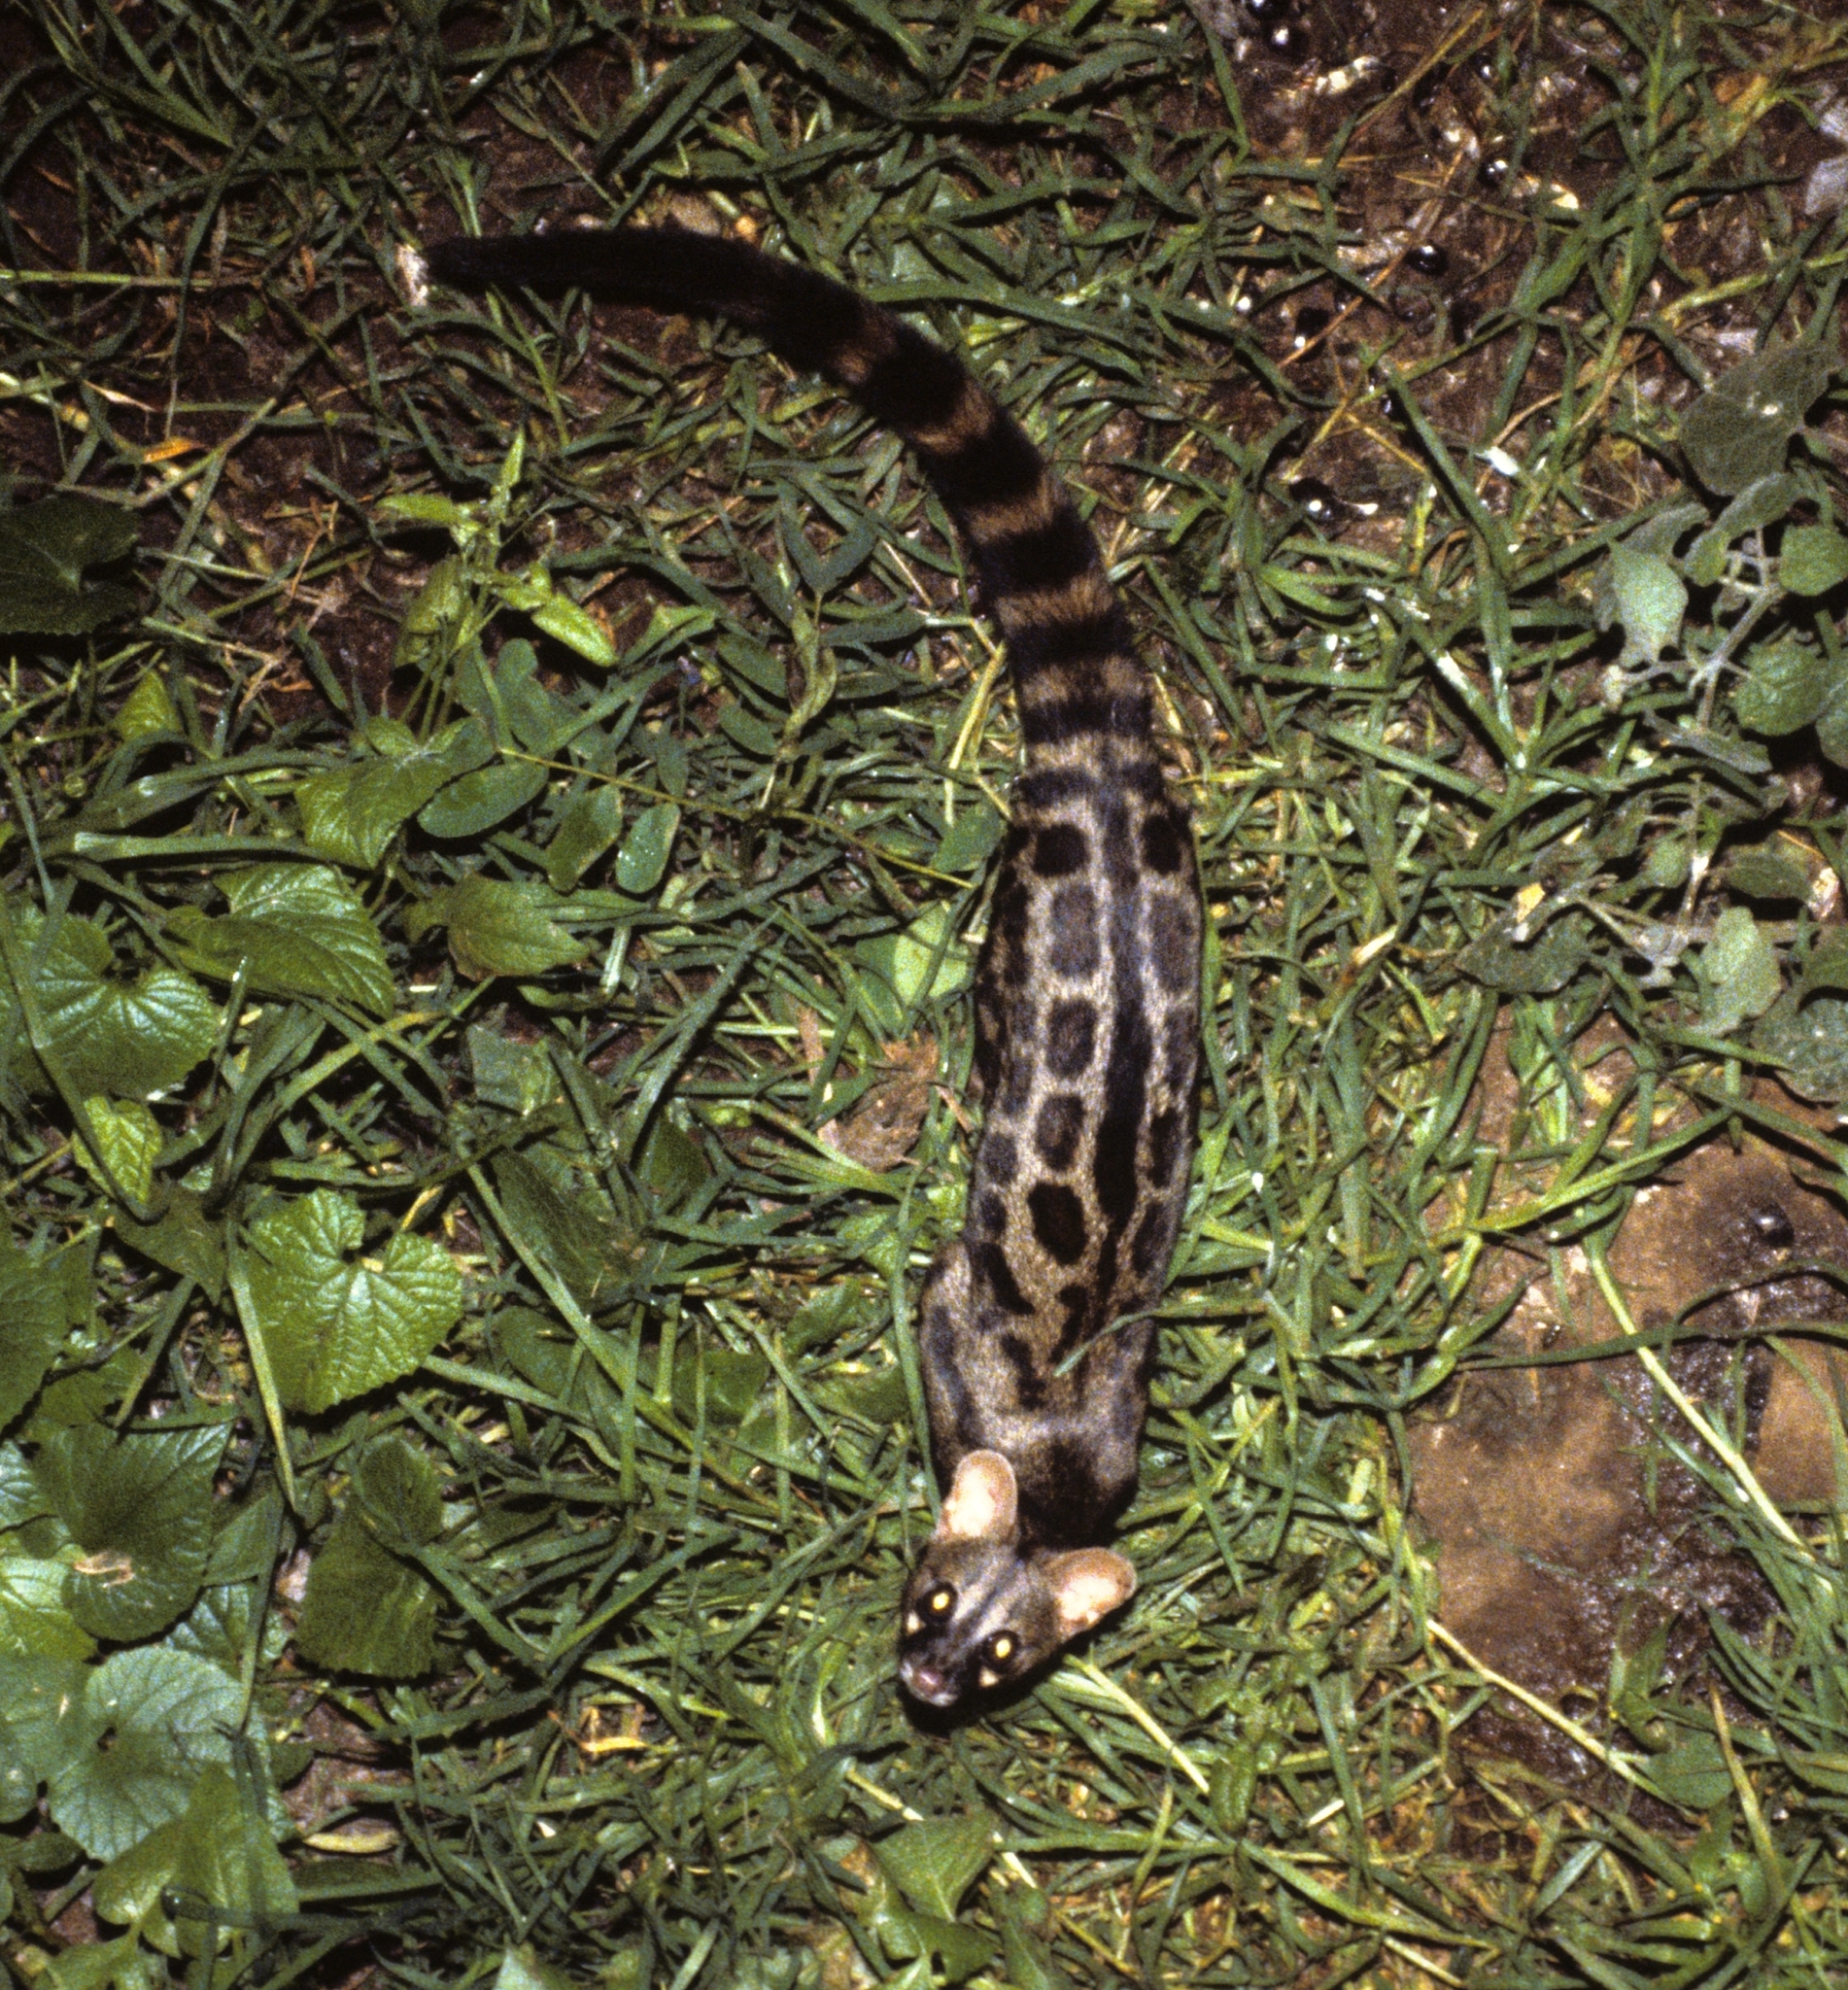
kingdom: Animalia
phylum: Chordata
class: Mammalia
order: Carnivora
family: Viverridae
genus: Genetta
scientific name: Genetta maculata
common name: Rusty-spotted genet
